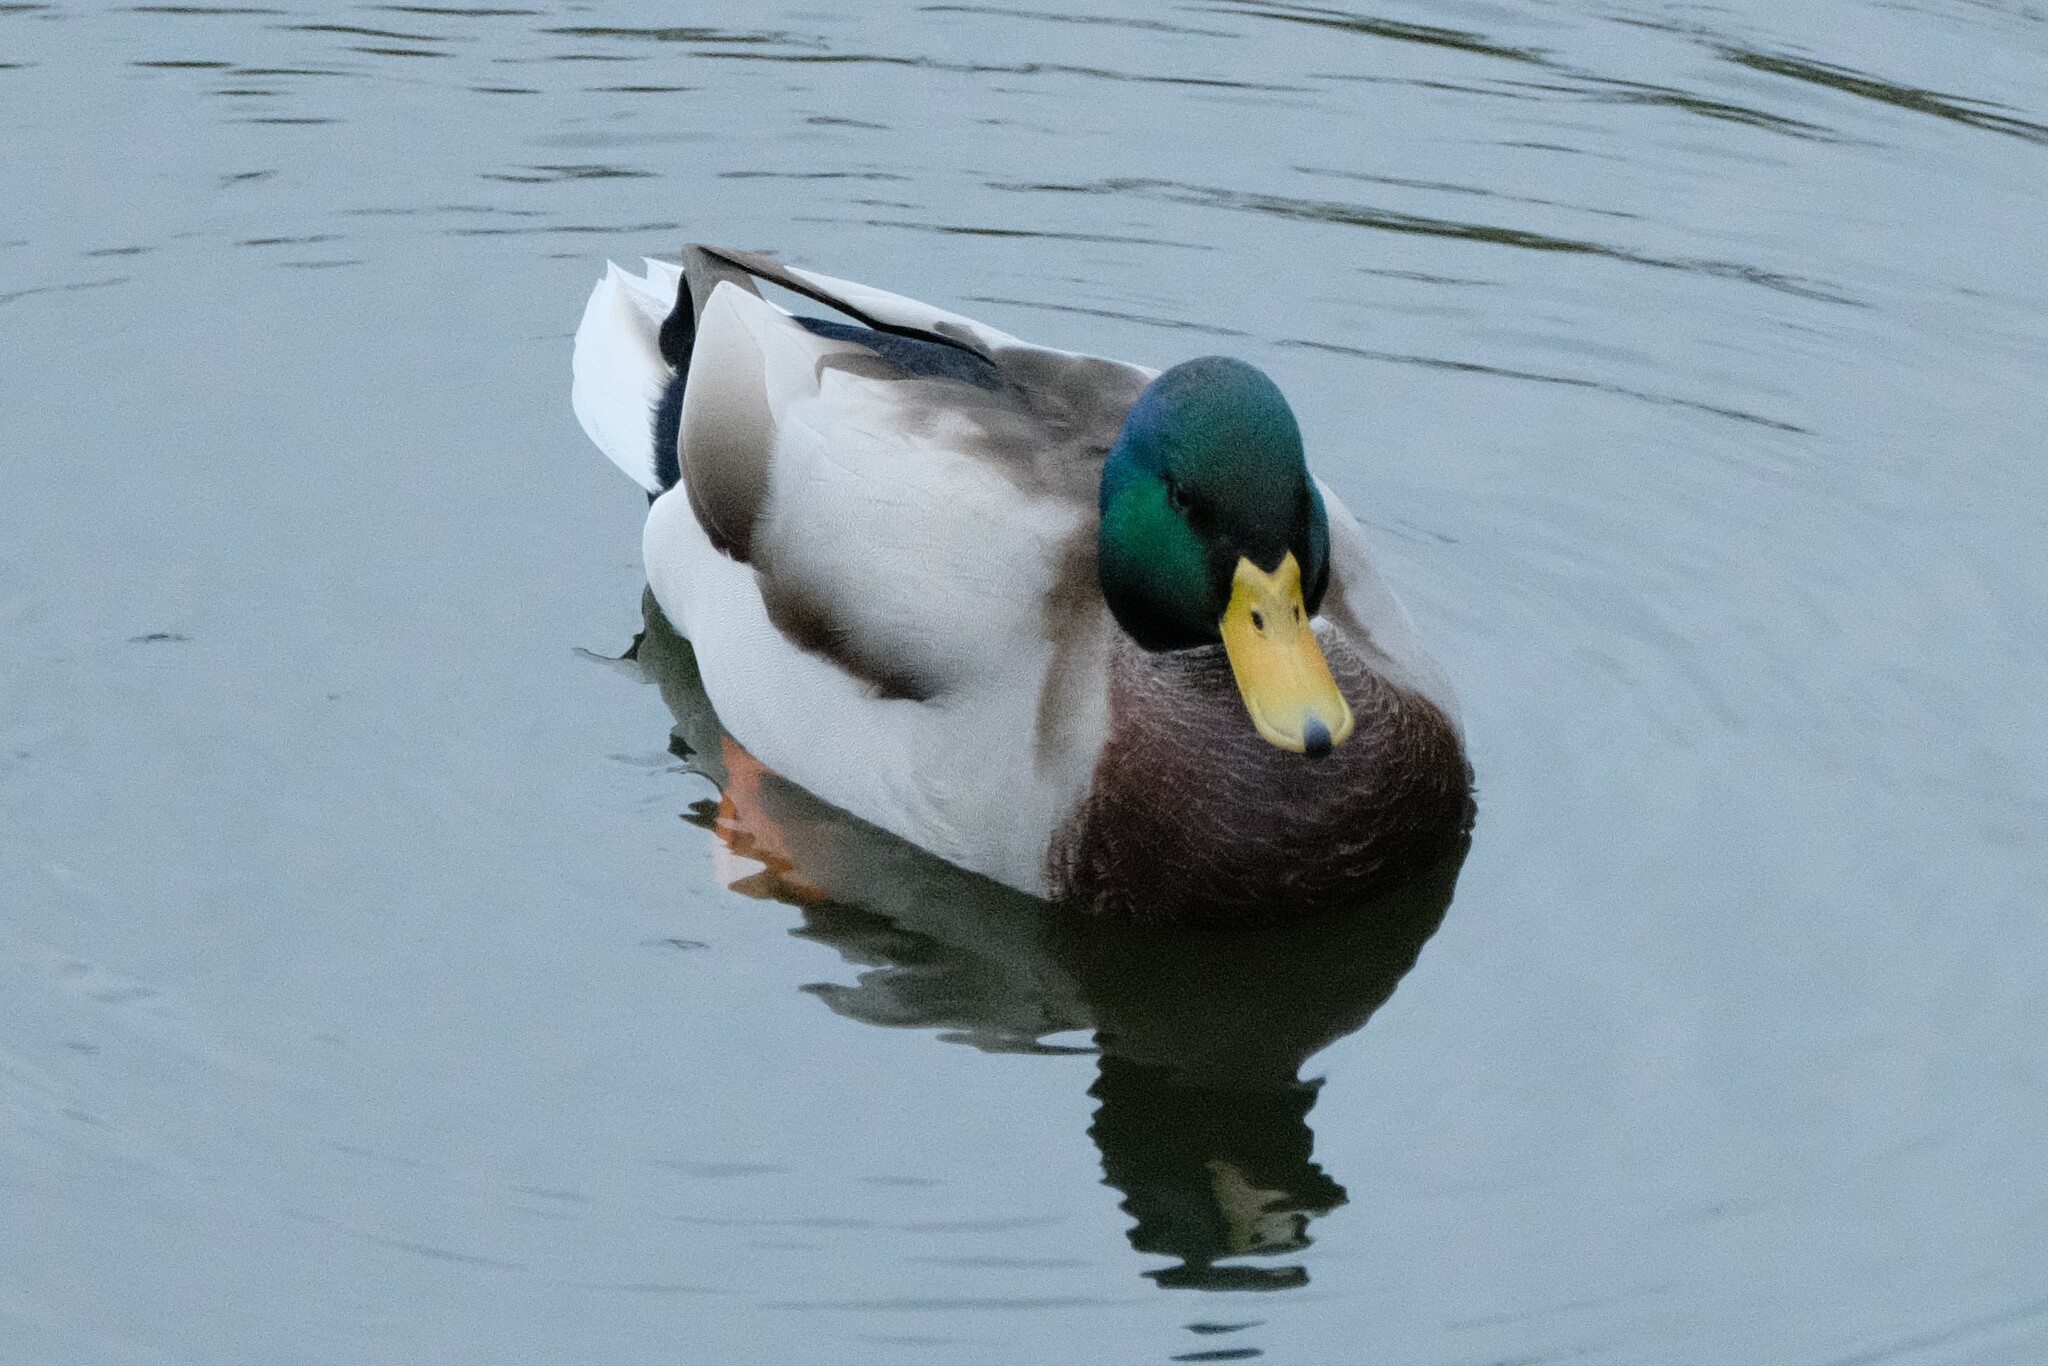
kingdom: Animalia
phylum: Chordata
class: Aves
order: Anseriformes
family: Anatidae
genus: Anas
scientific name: Anas platyrhynchos
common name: Mallard
